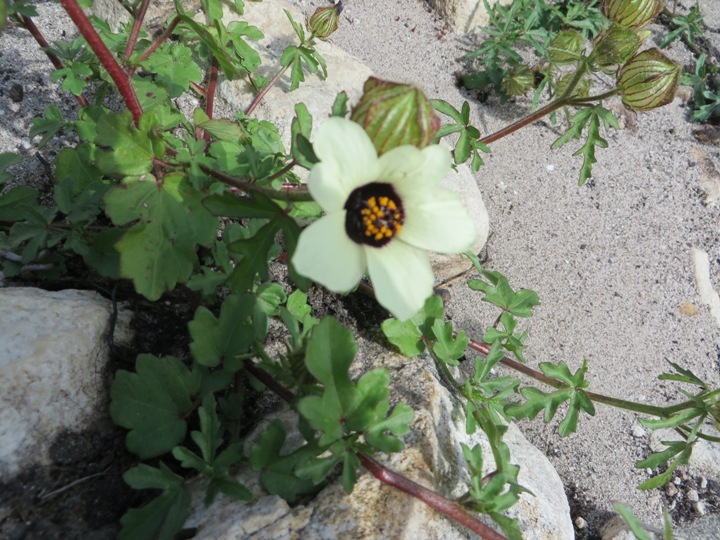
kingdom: Plantae
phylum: Tracheophyta
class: Magnoliopsida
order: Malvales
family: Malvaceae
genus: Hibiscus
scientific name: Hibiscus trionum
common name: Bladder ketmia
